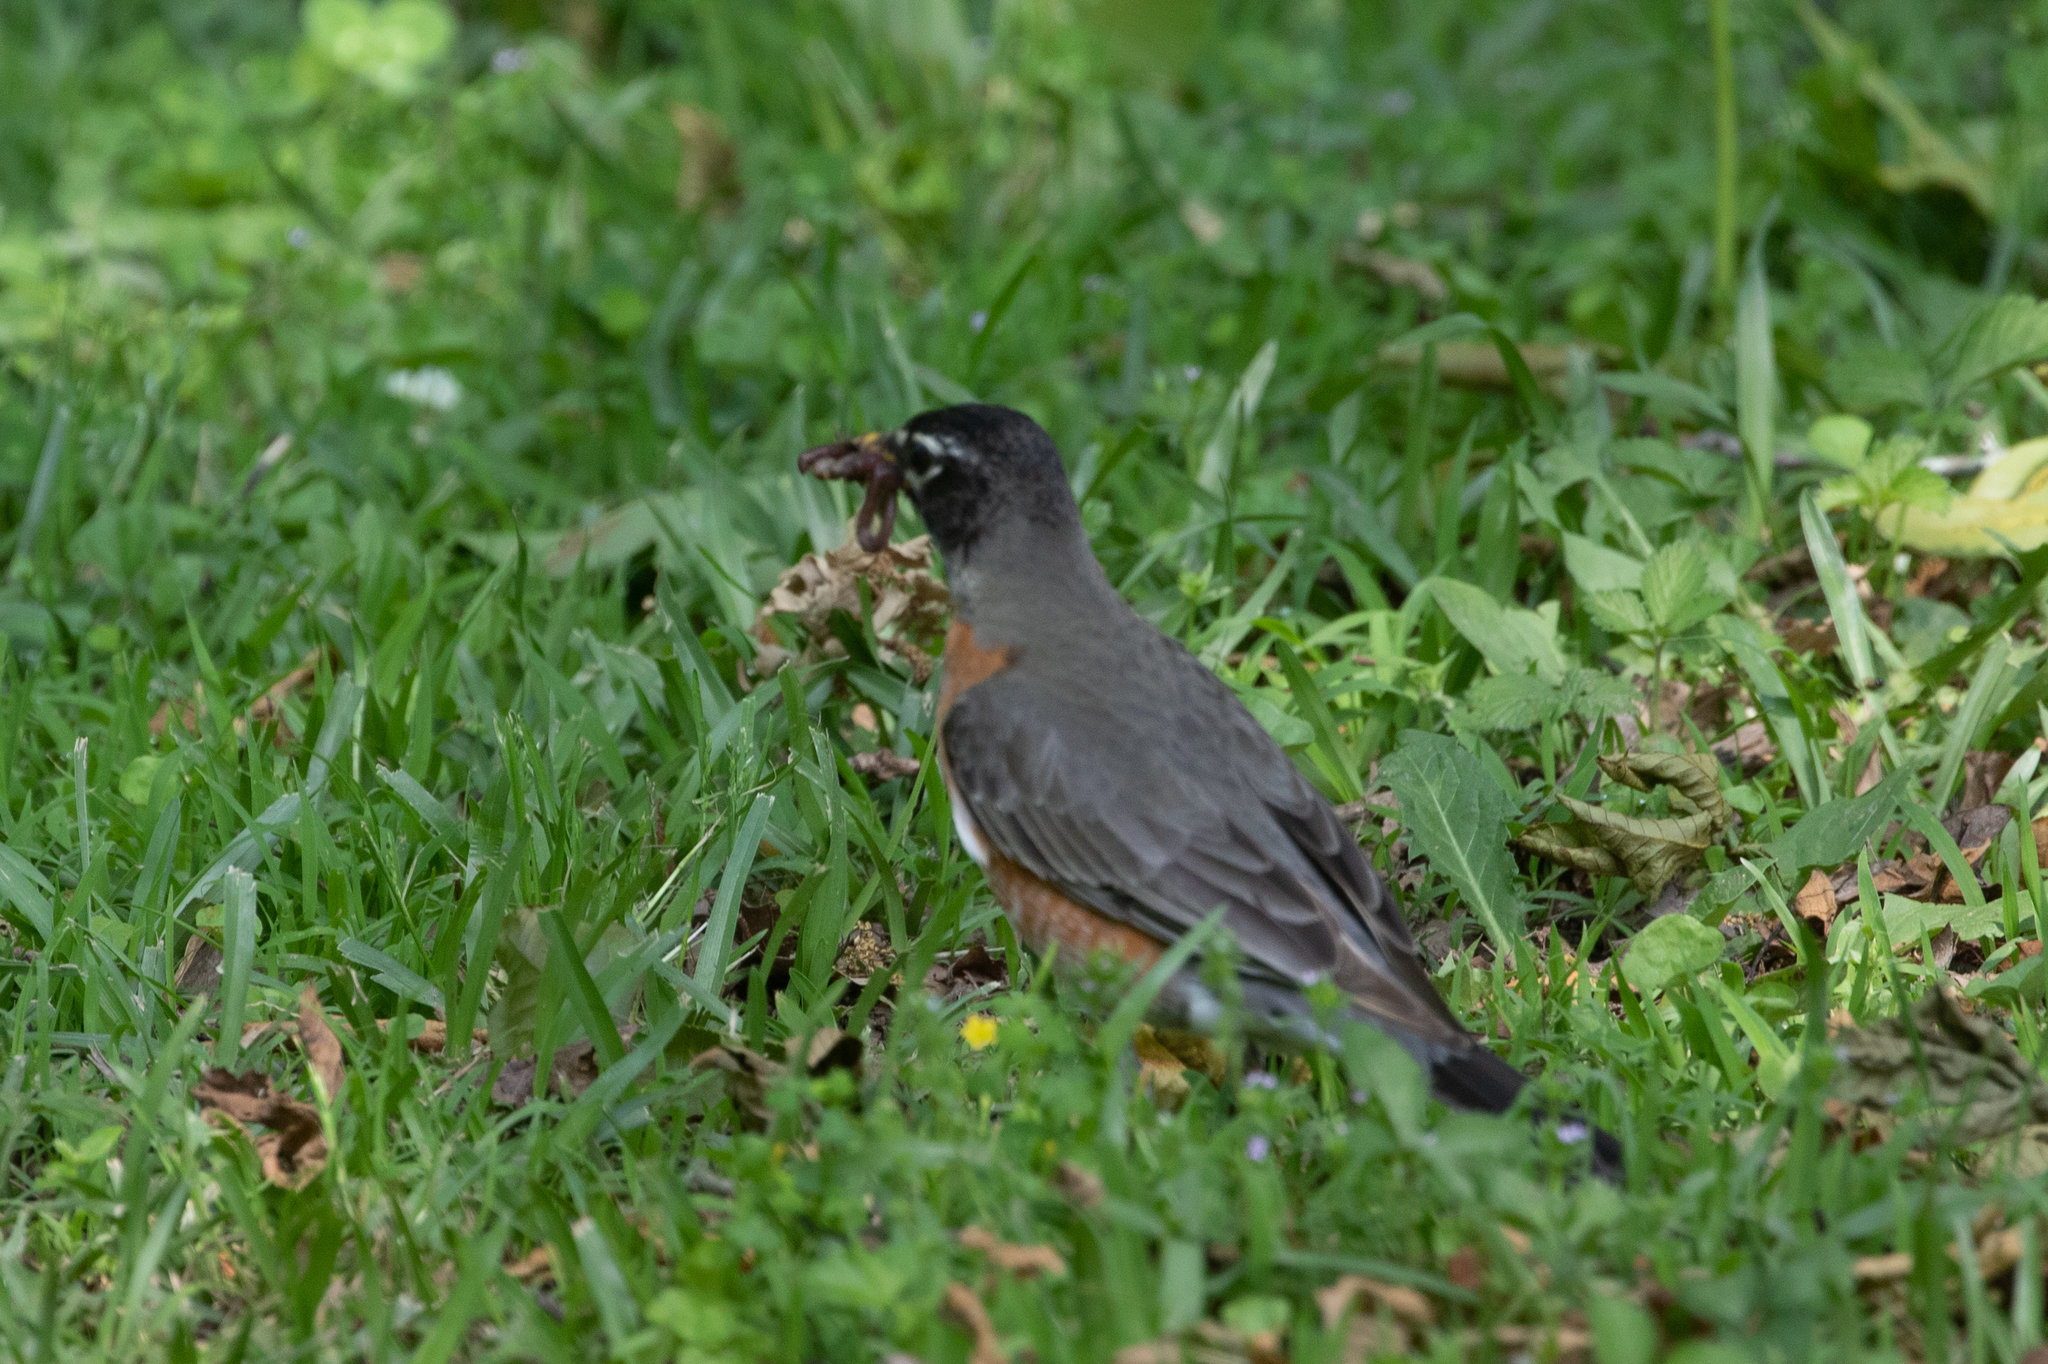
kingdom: Animalia
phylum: Chordata
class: Aves
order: Passeriformes
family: Turdidae
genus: Turdus
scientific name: Turdus migratorius
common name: American robin
